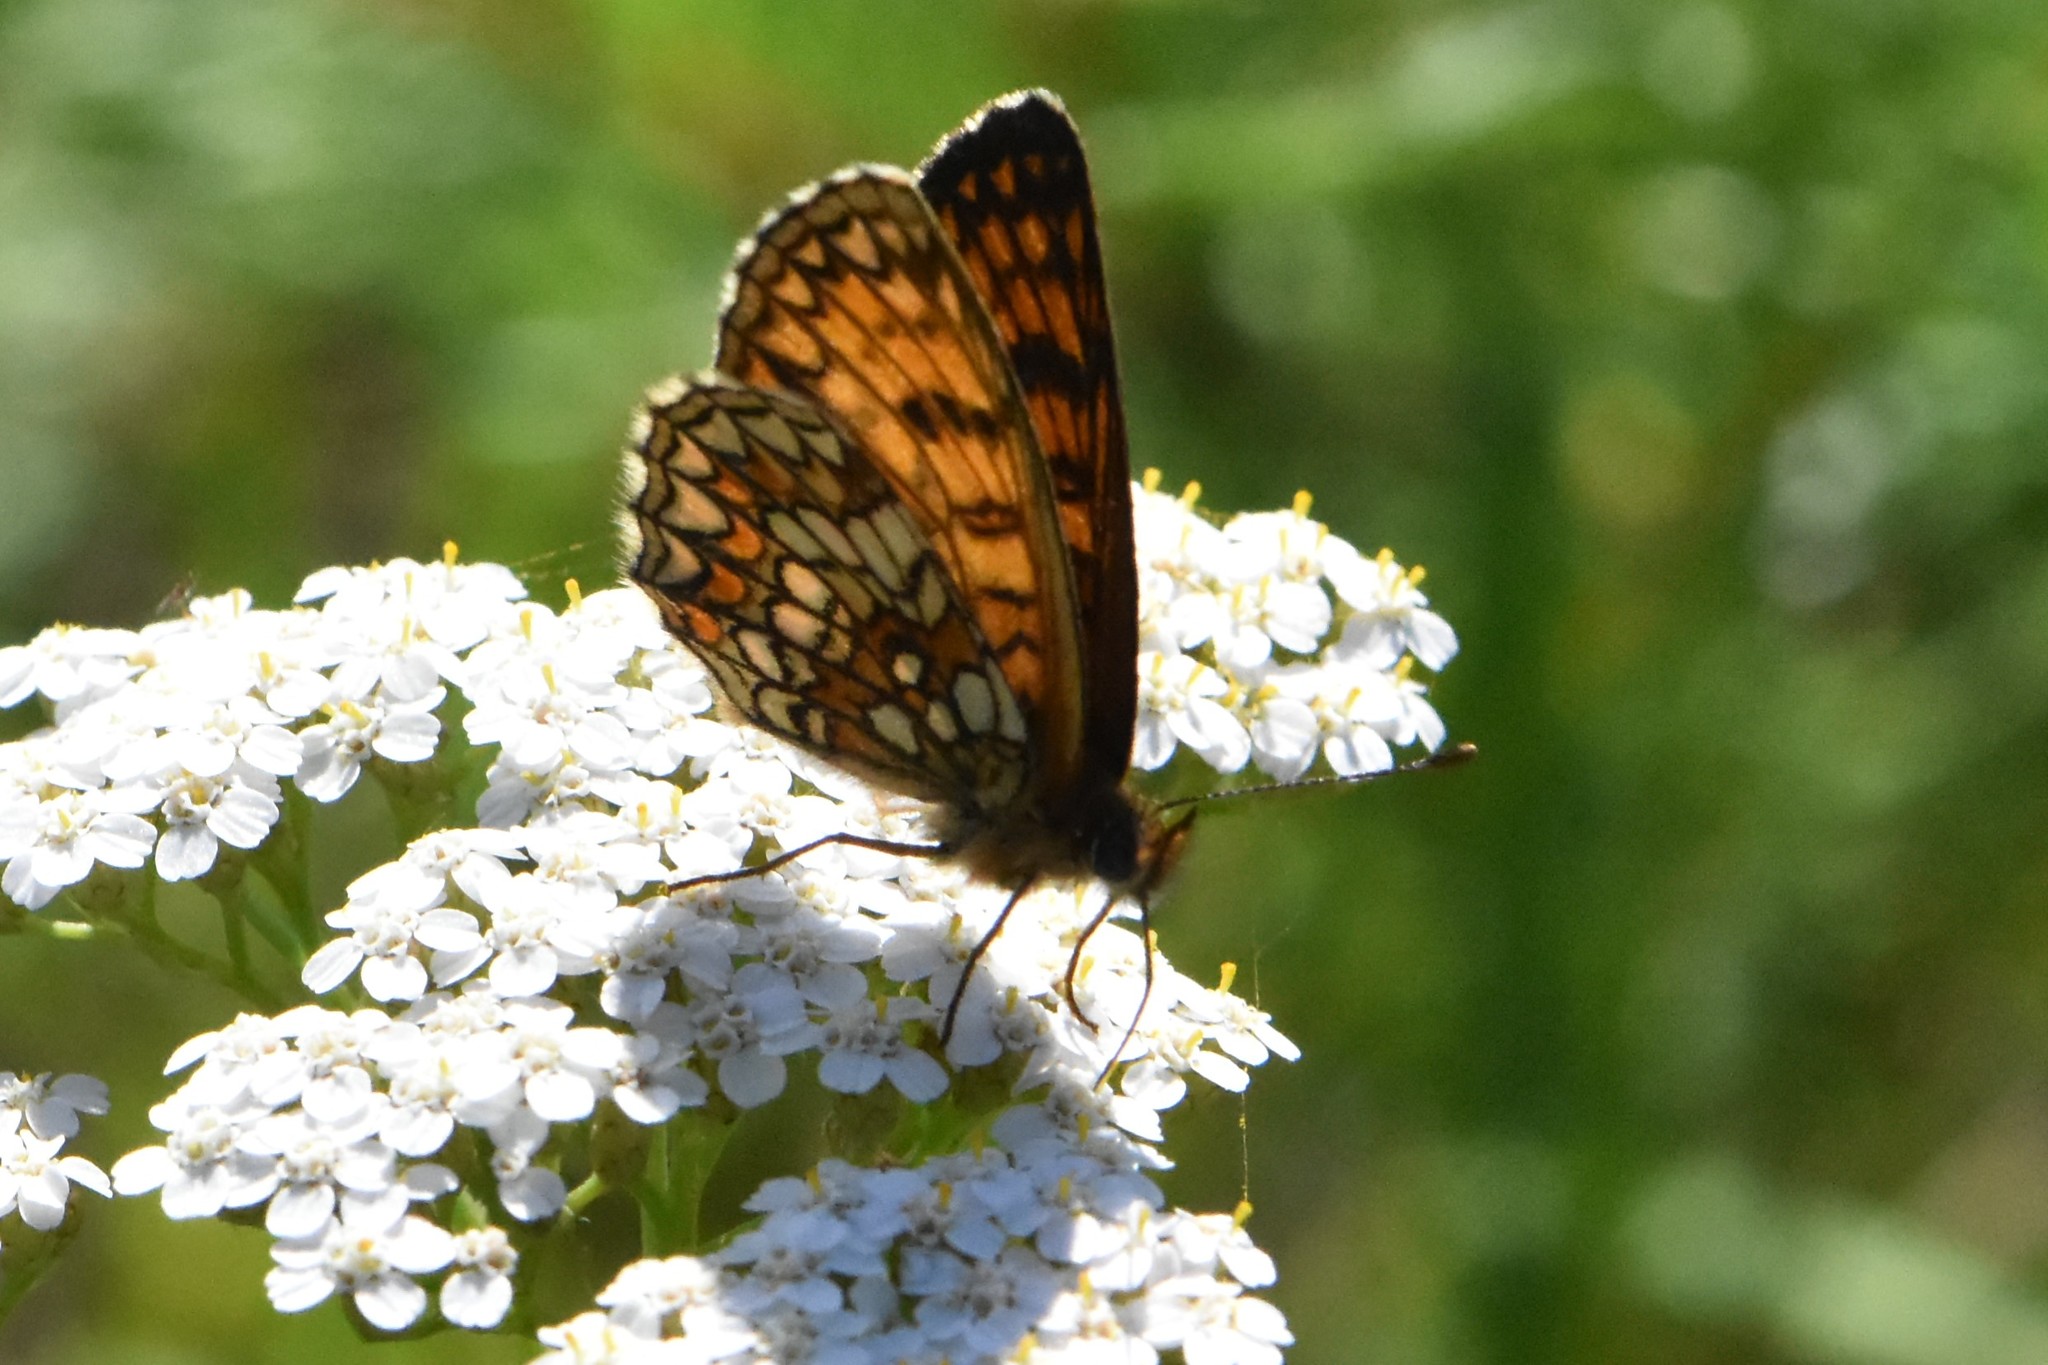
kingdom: Animalia
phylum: Arthropoda
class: Insecta
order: Lepidoptera
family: Nymphalidae
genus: Melitaea
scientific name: Melitaea athalia
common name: Heath fritillary
